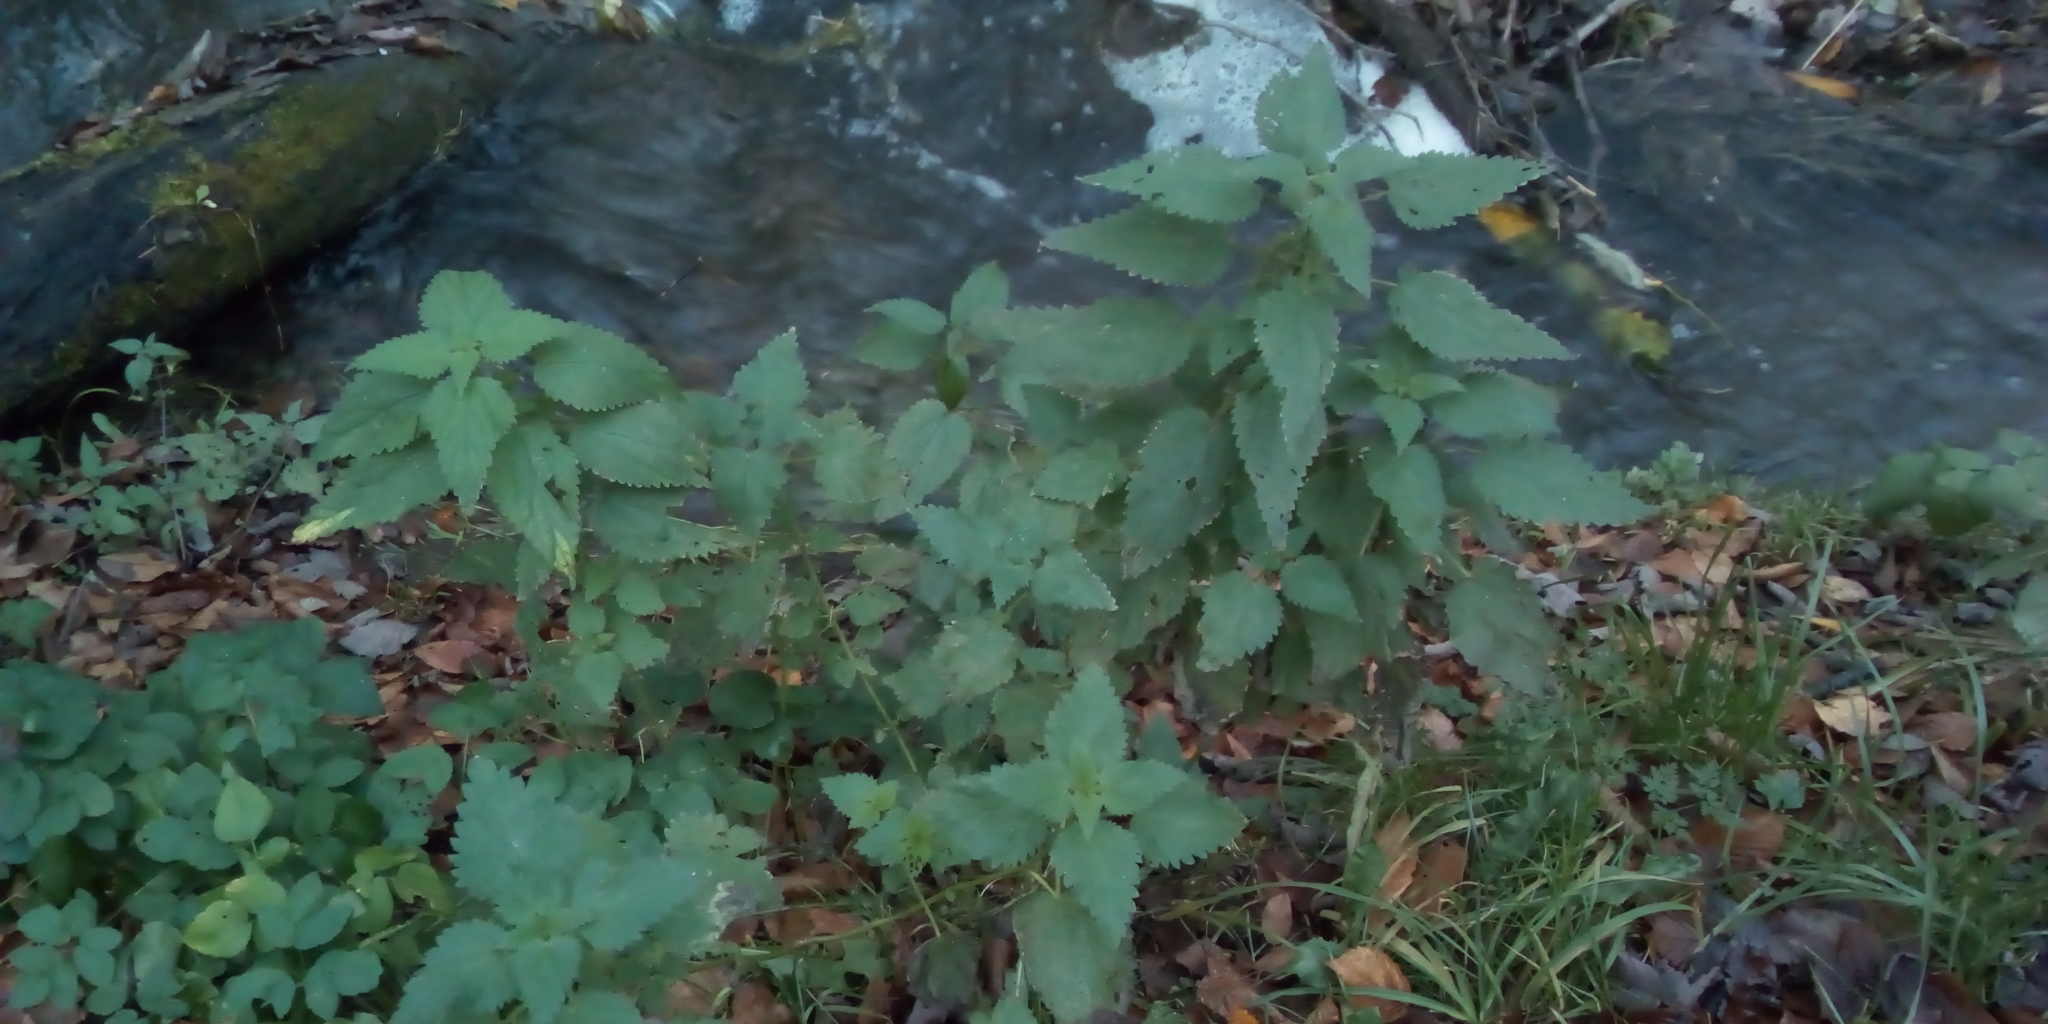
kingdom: Plantae
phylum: Tracheophyta
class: Magnoliopsida
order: Rosales
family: Urticaceae
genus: Urtica
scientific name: Urtica dioica
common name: Common nettle
